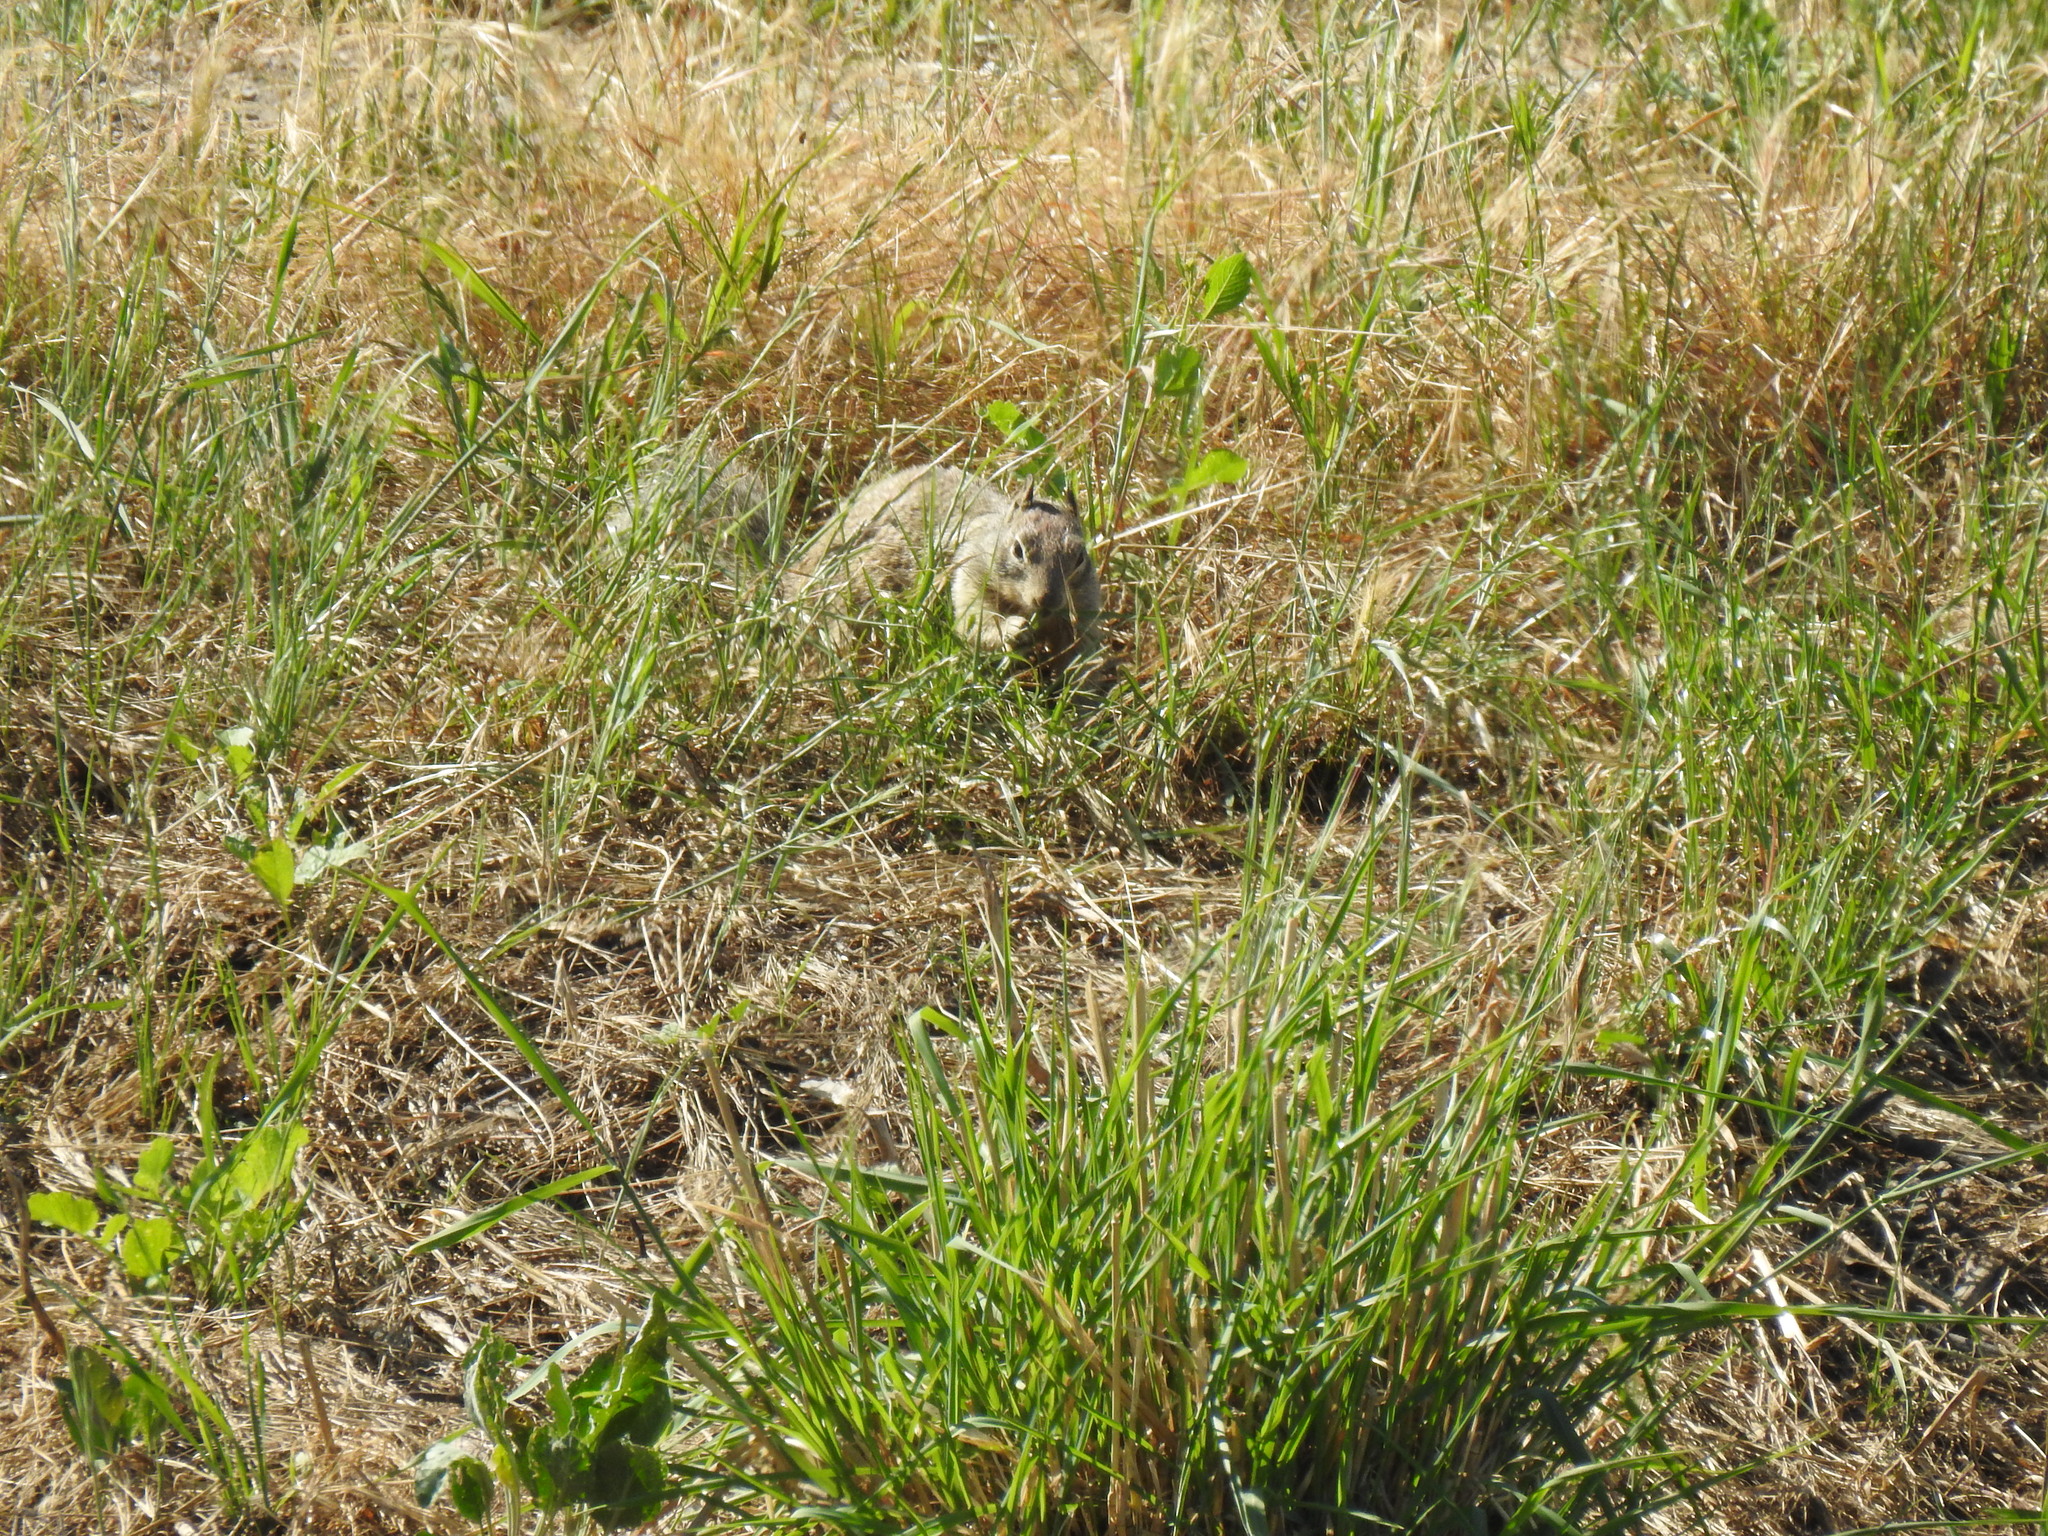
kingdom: Animalia
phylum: Chordata
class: Mammalia
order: Rodentia
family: Sciuridae
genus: Otospermophilus
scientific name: Otospermophilus beecheyi
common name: California ground squirrel
